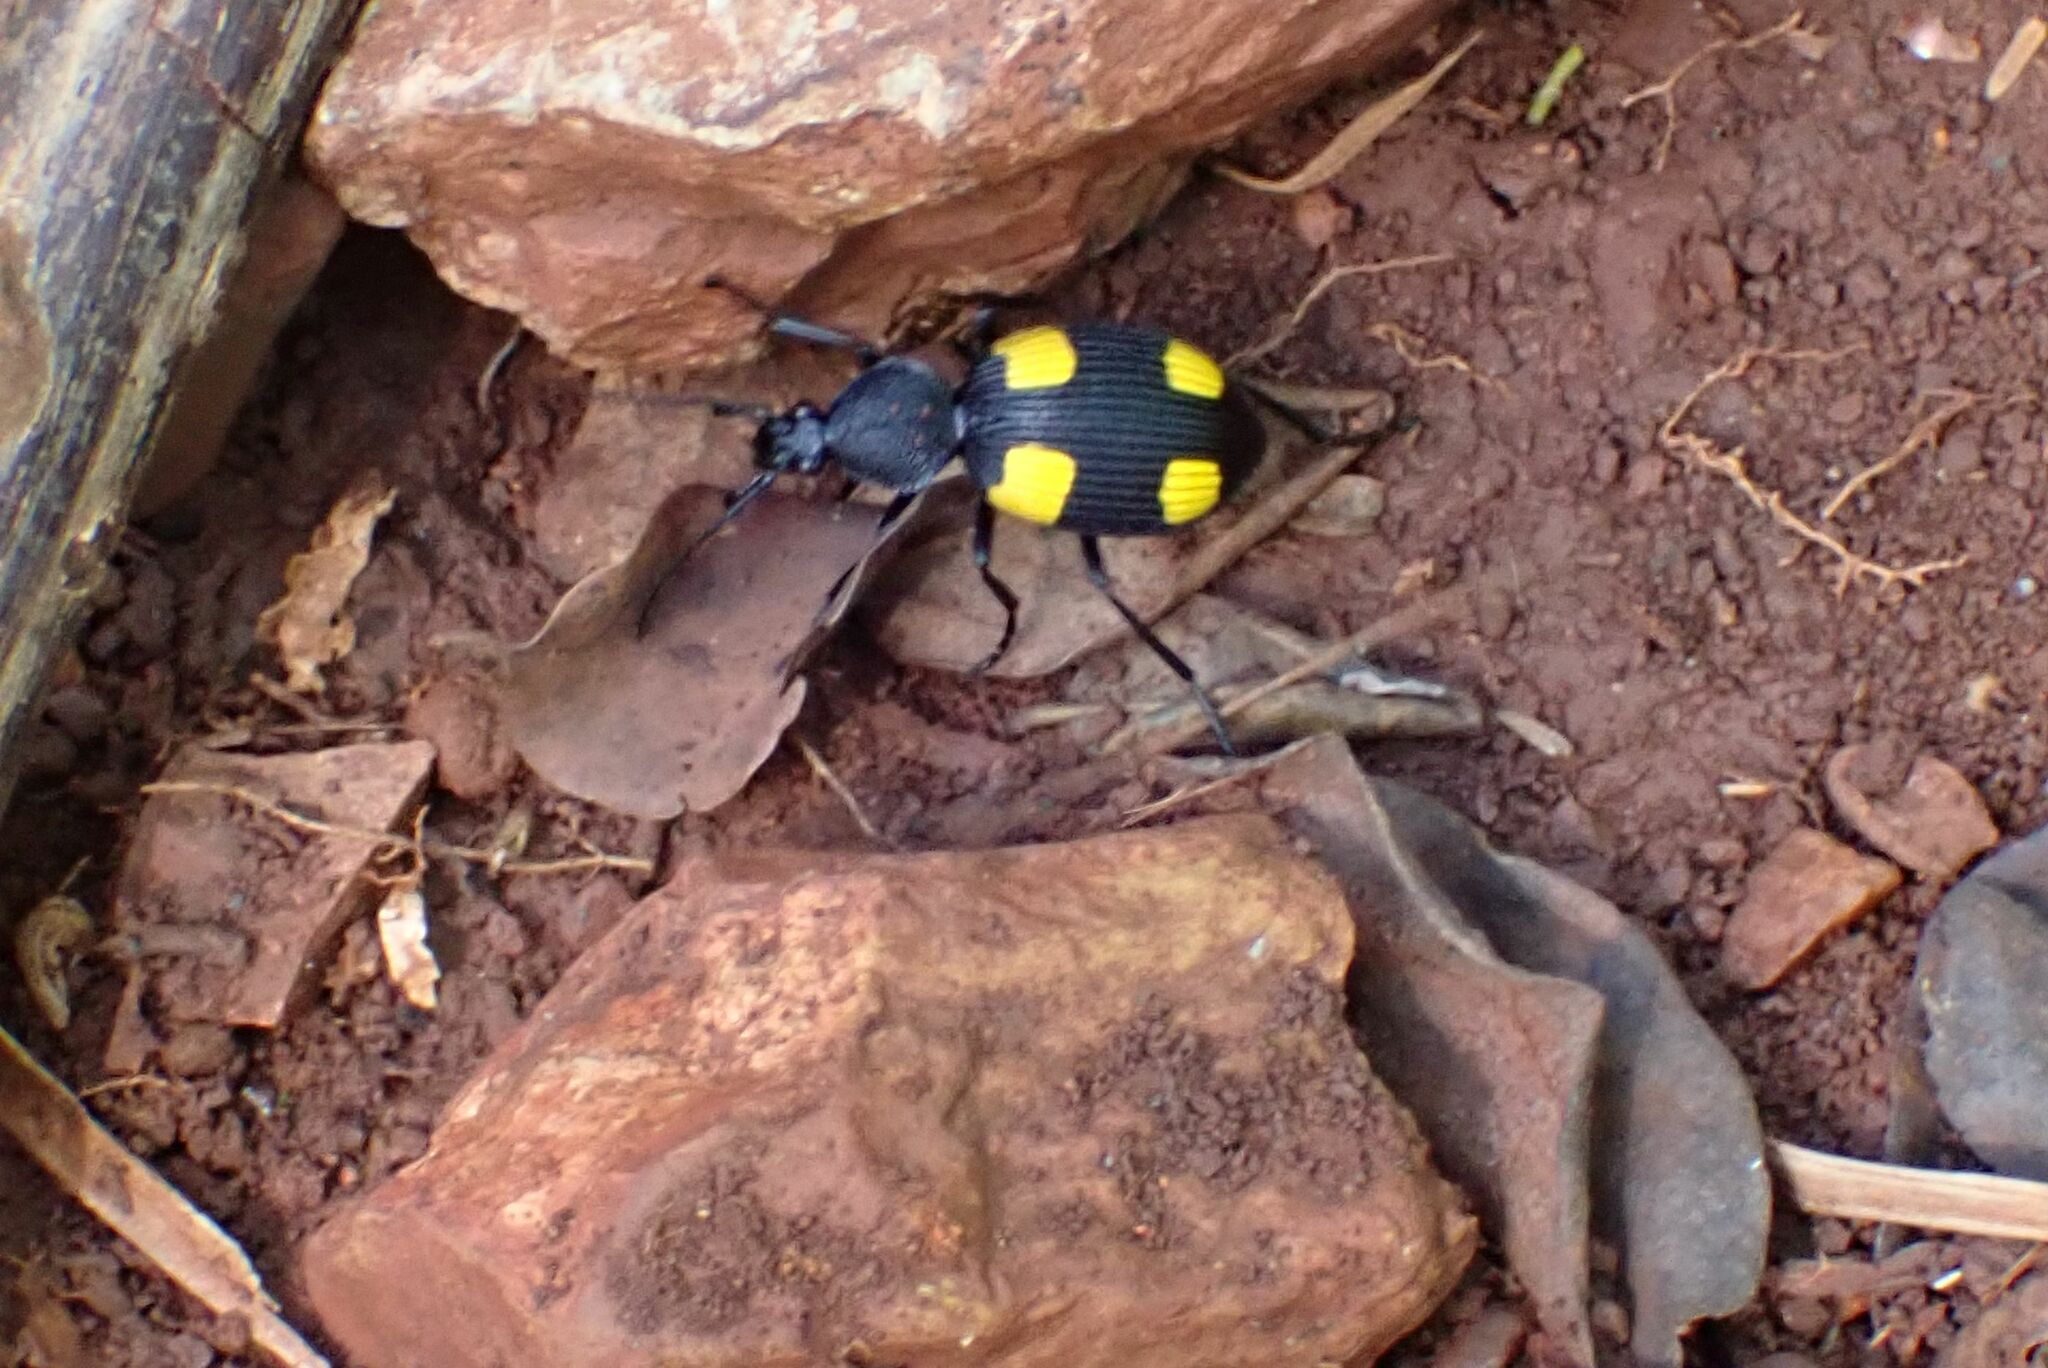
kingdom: Animalia
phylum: Arthropoda
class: Insecta
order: Coleoptera
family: Carabidae
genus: Craspedophorus
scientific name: Craspedophorus bonvouloirii
